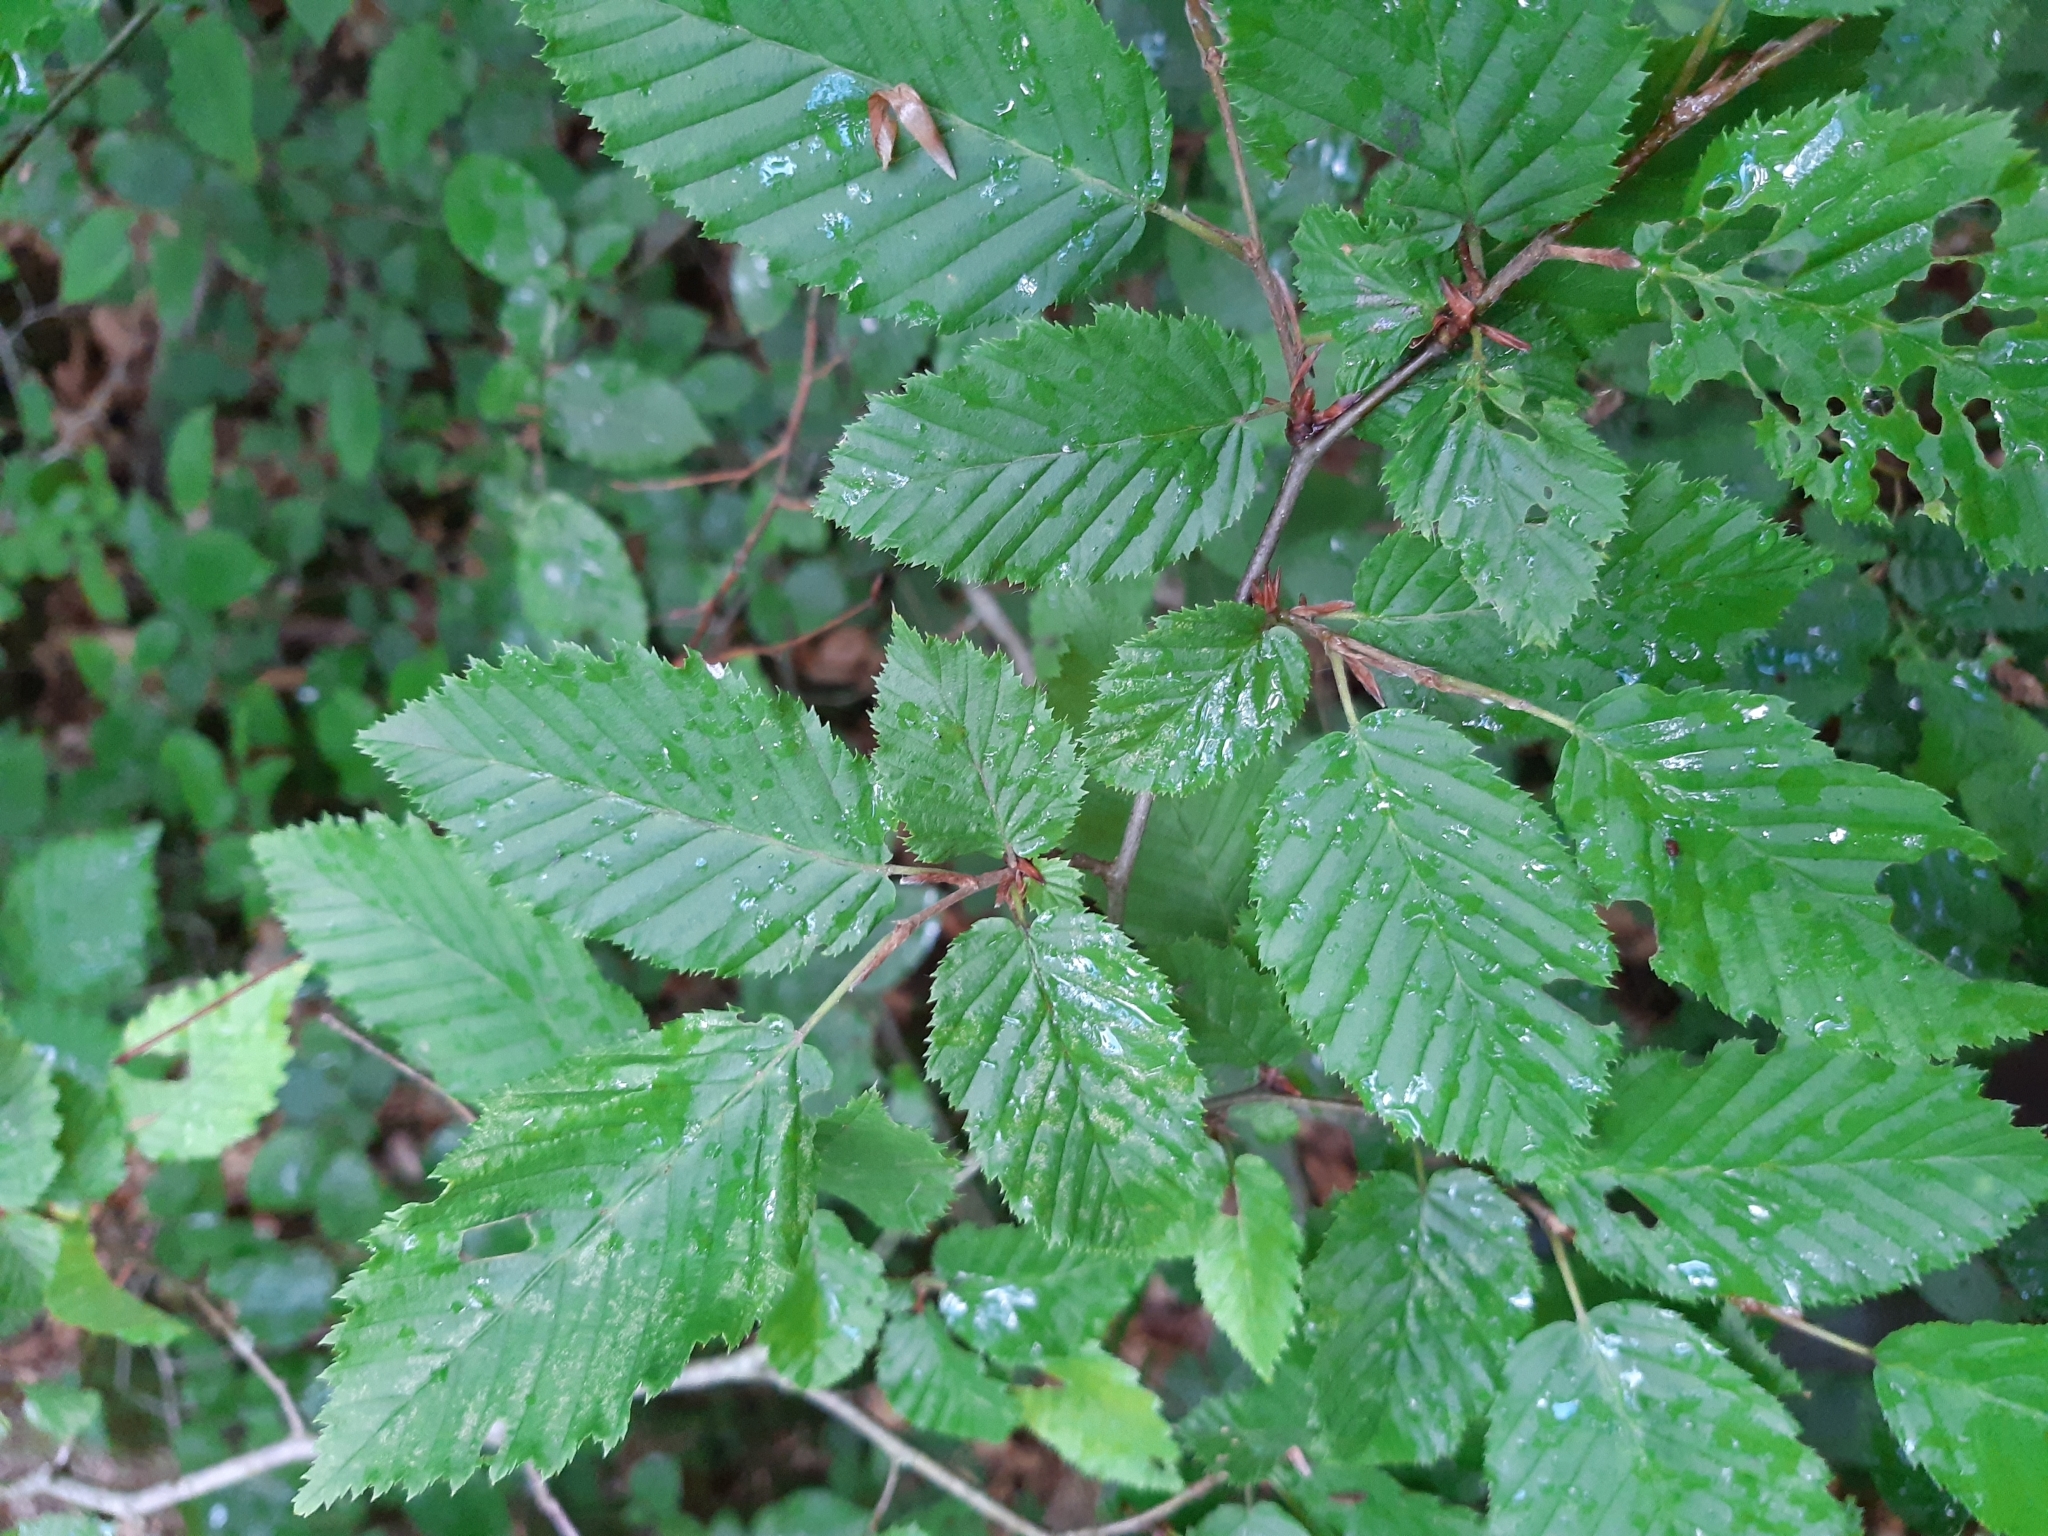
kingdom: Plantae
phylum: Tracheophyta
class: Magnoliopsida
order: Fagales
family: Betulaceae
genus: Carpinus
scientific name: Carpinus betulus
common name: Hornbeam
